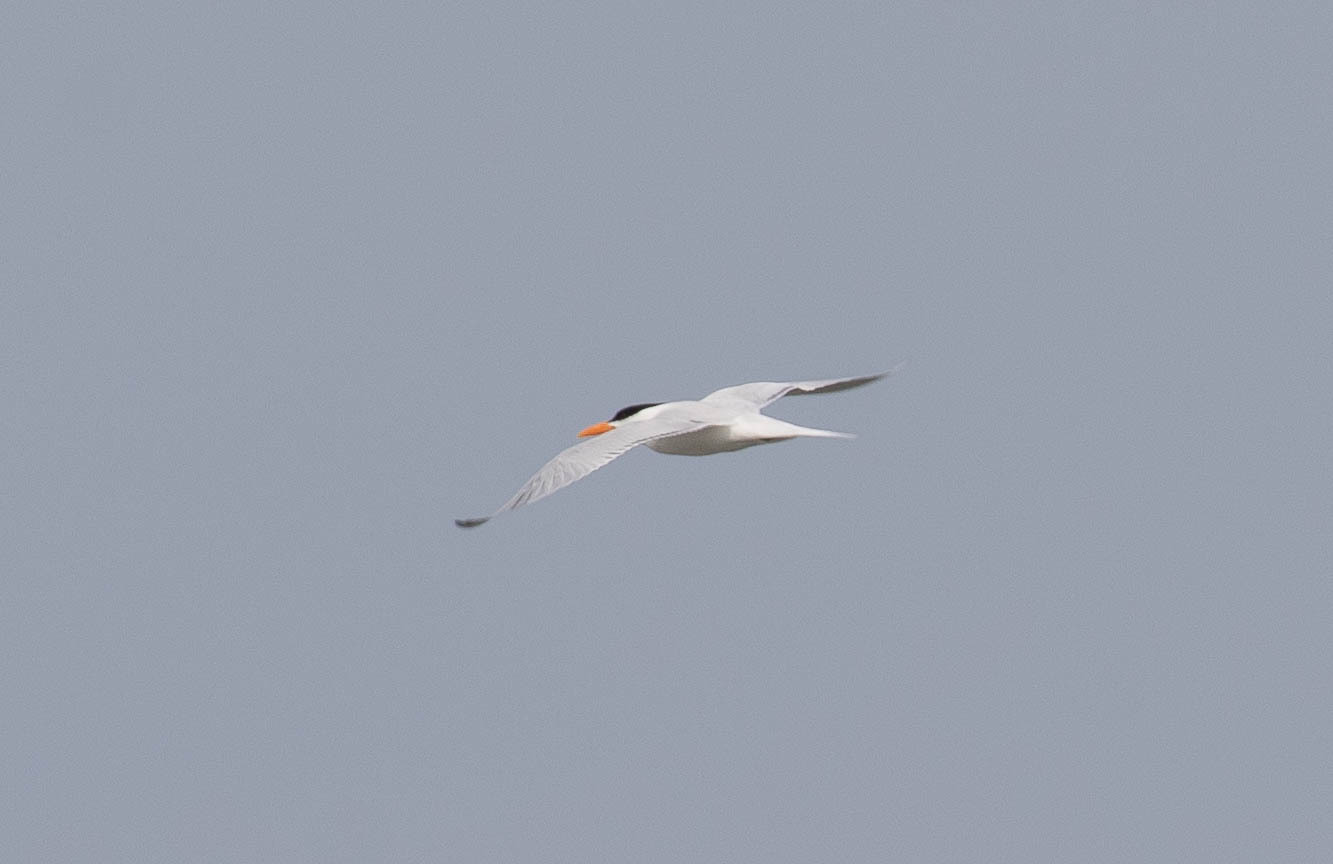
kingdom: Animalia
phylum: Chordata
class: Aves
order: Charadriiformes
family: Laridae
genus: Thalasseus
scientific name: Thalasseus maximus
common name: Royal tern
